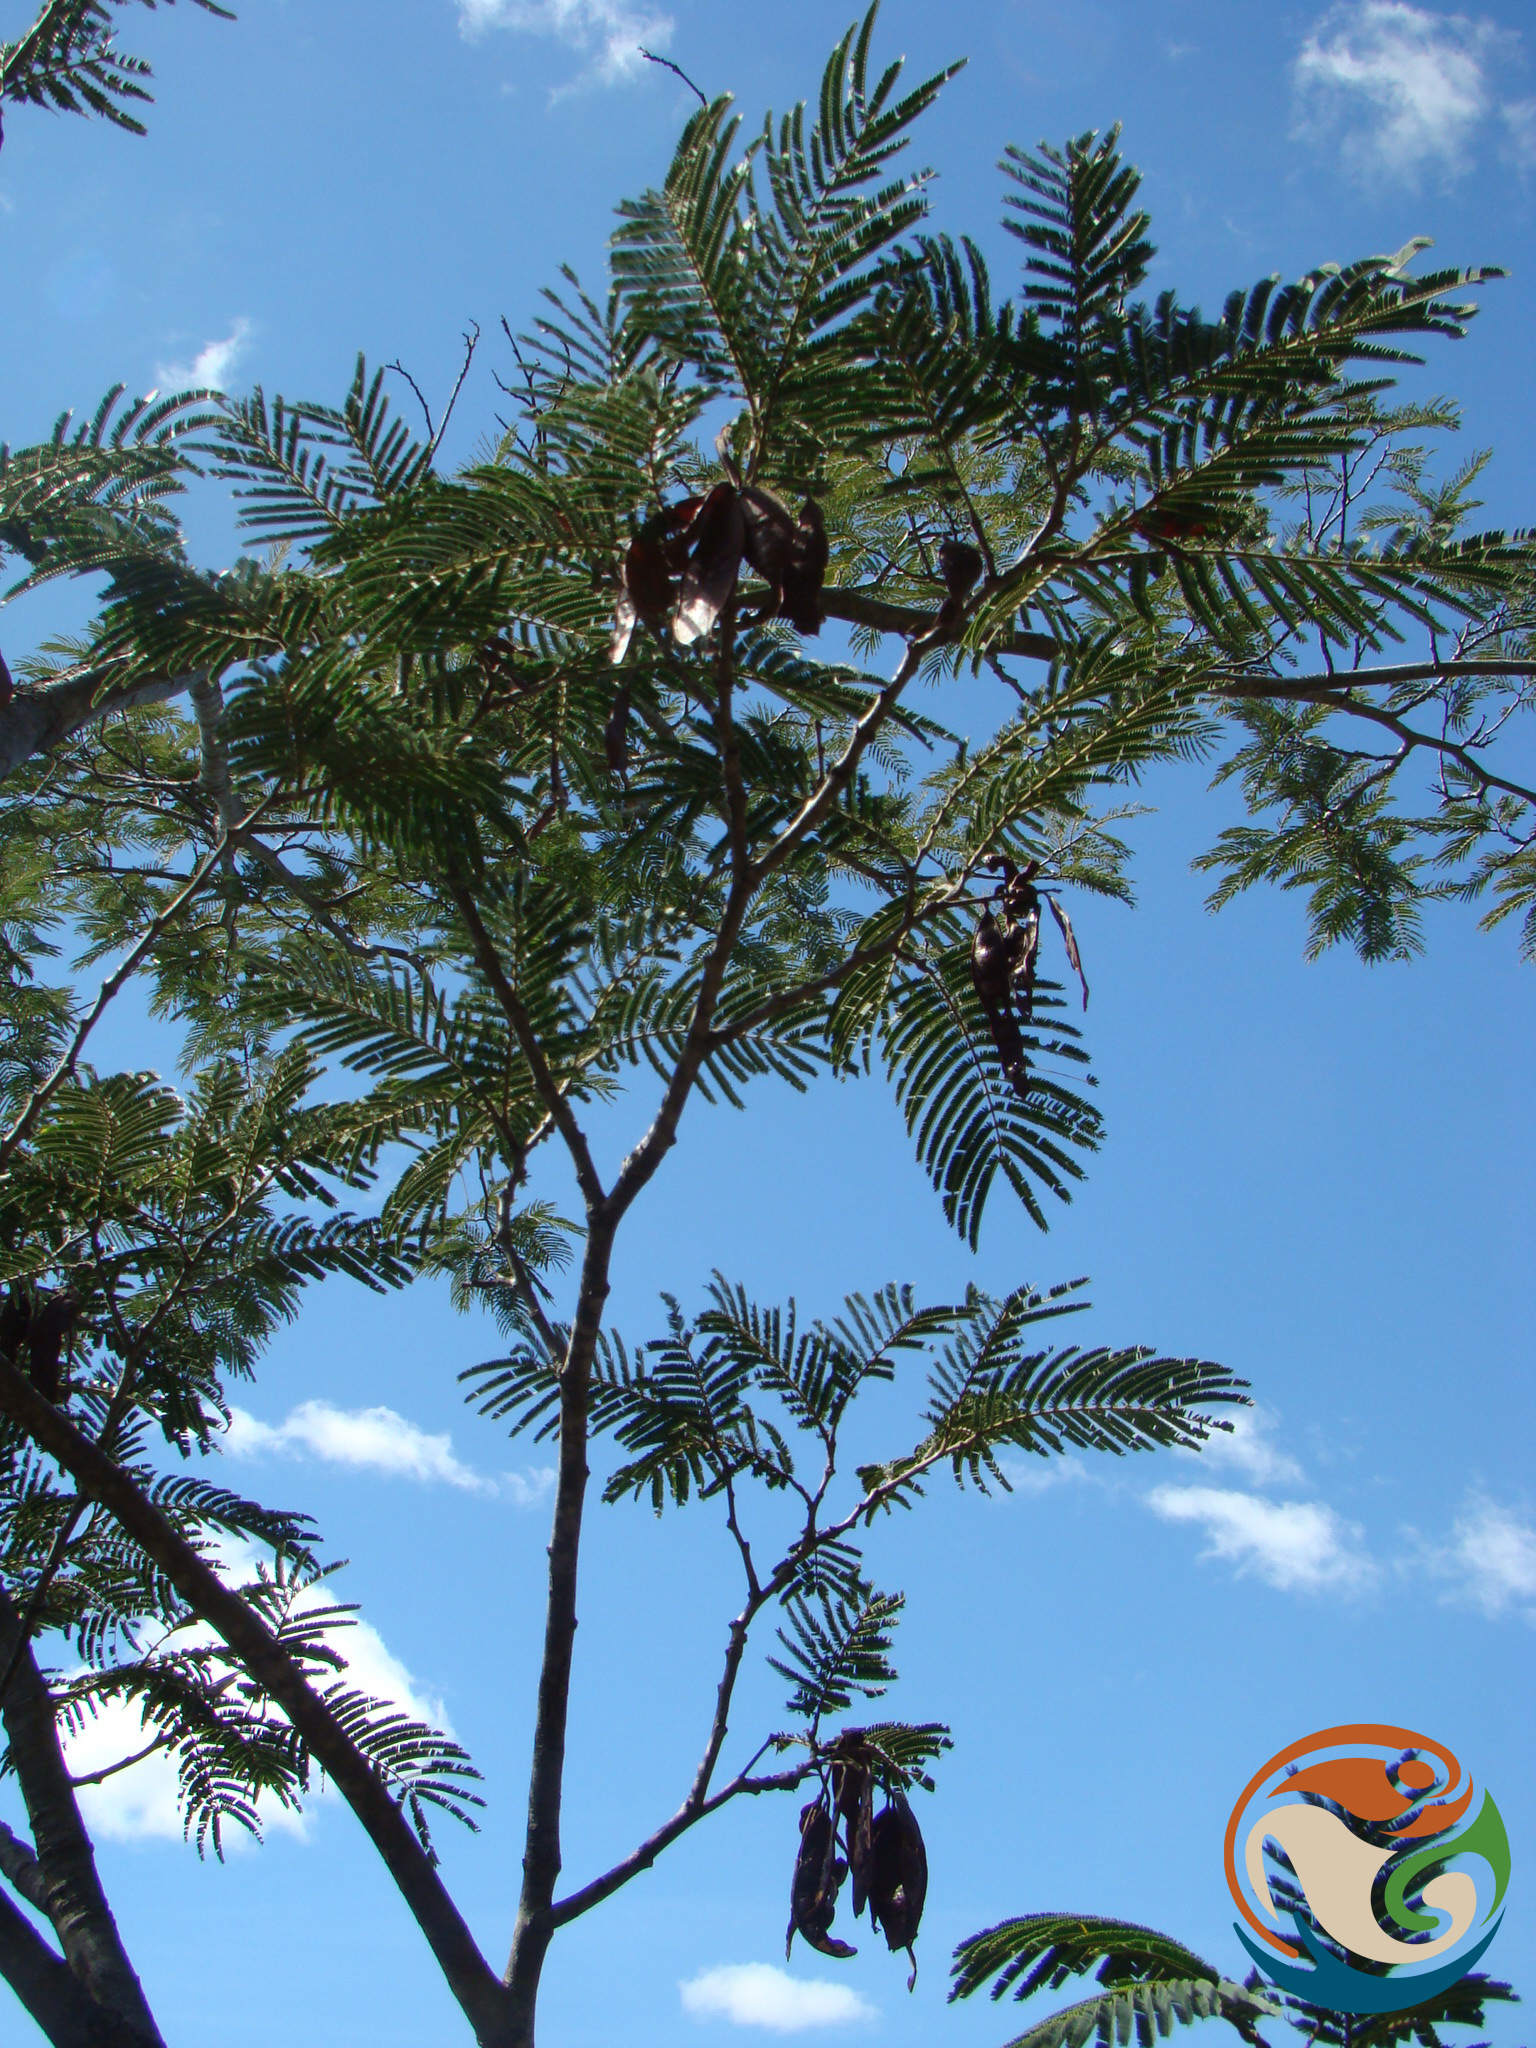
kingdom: Plantae
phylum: Tracheophyta
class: Magnoliopsida
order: Fabales
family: Fabaceae
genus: Lysiloma
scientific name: Lysiloma acapulcense
